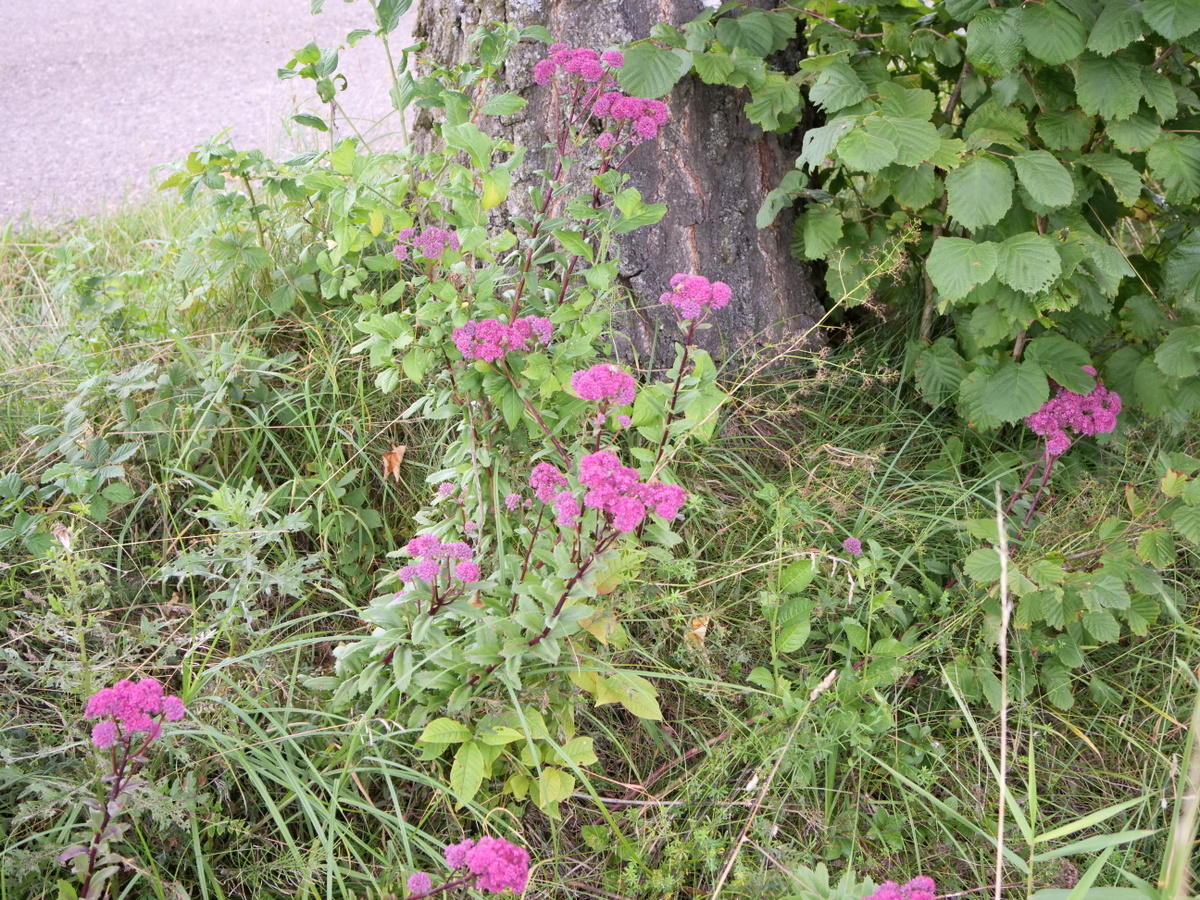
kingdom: Plantae
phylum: Tracheophyta
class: Magnoliopsida
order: Saxifragales
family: Crassulaceae
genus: Hylotelephium
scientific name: Hylotelephium telephium
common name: Live-forever
